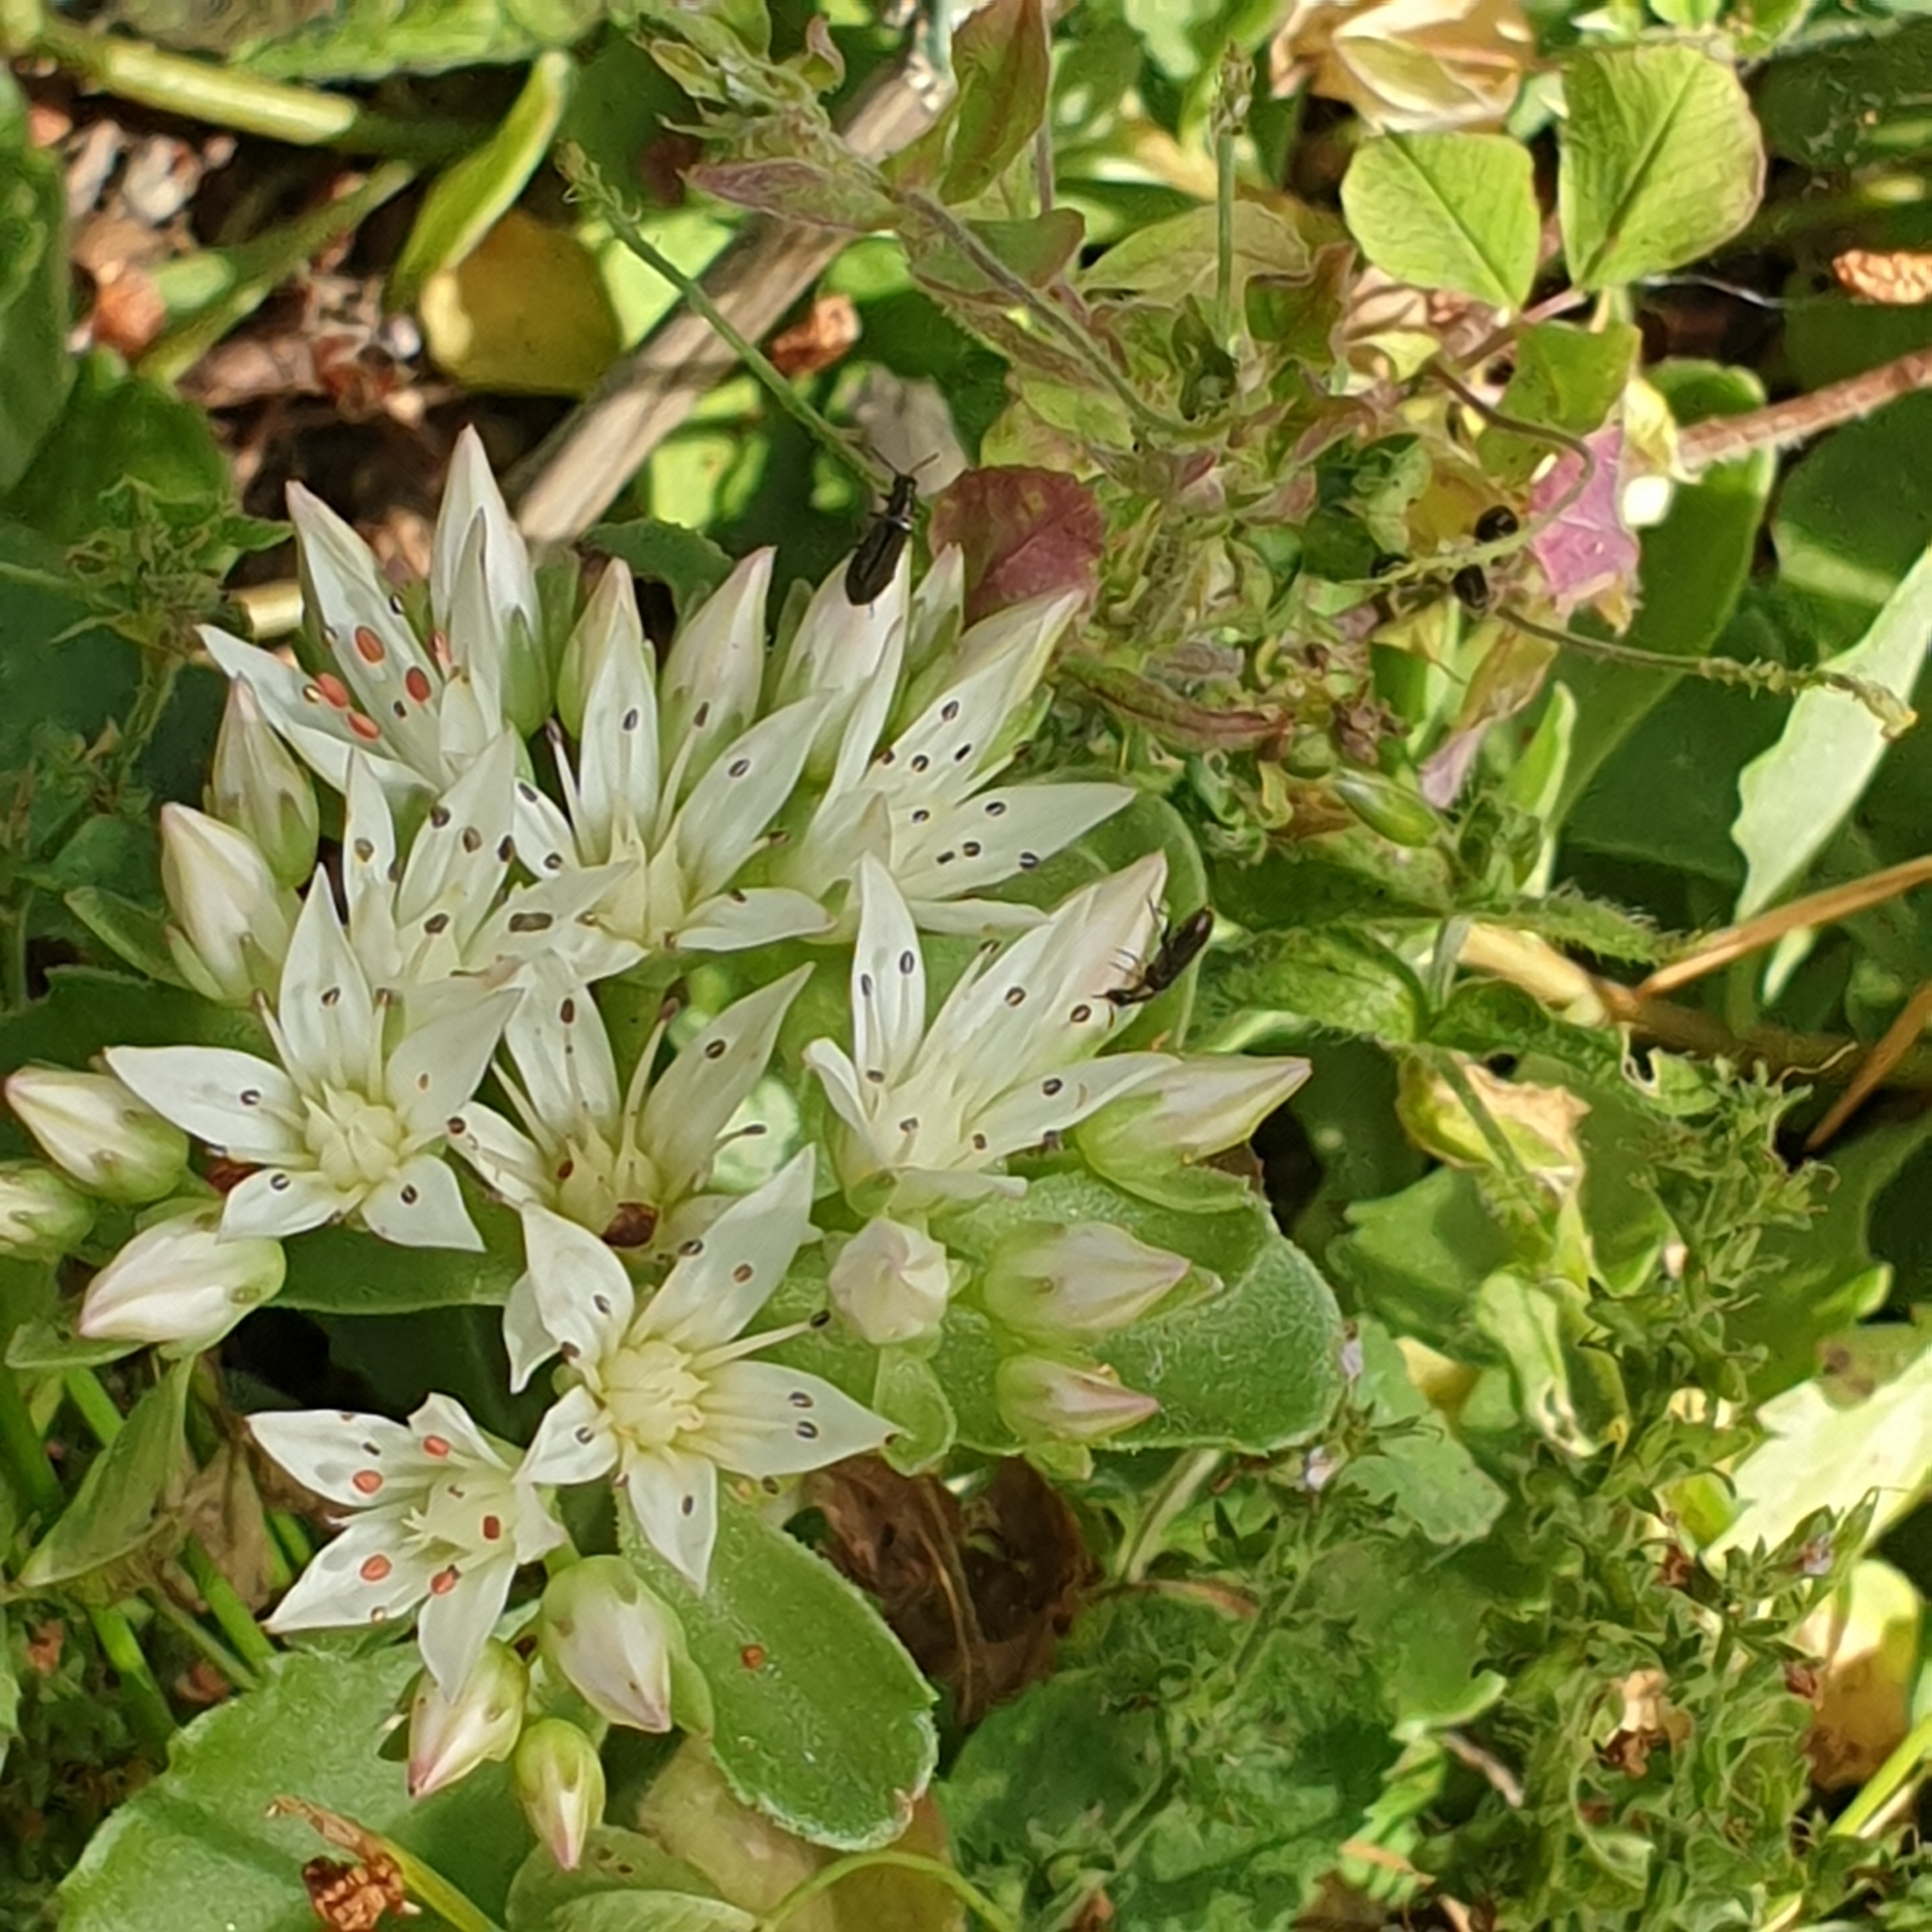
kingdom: Plantae
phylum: Tracheophyta
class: Magnoliopsida
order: Saxifragales
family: Crassulaceae
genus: Phedimus
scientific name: Phedimus spurius
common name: Caucasian stonecrop
